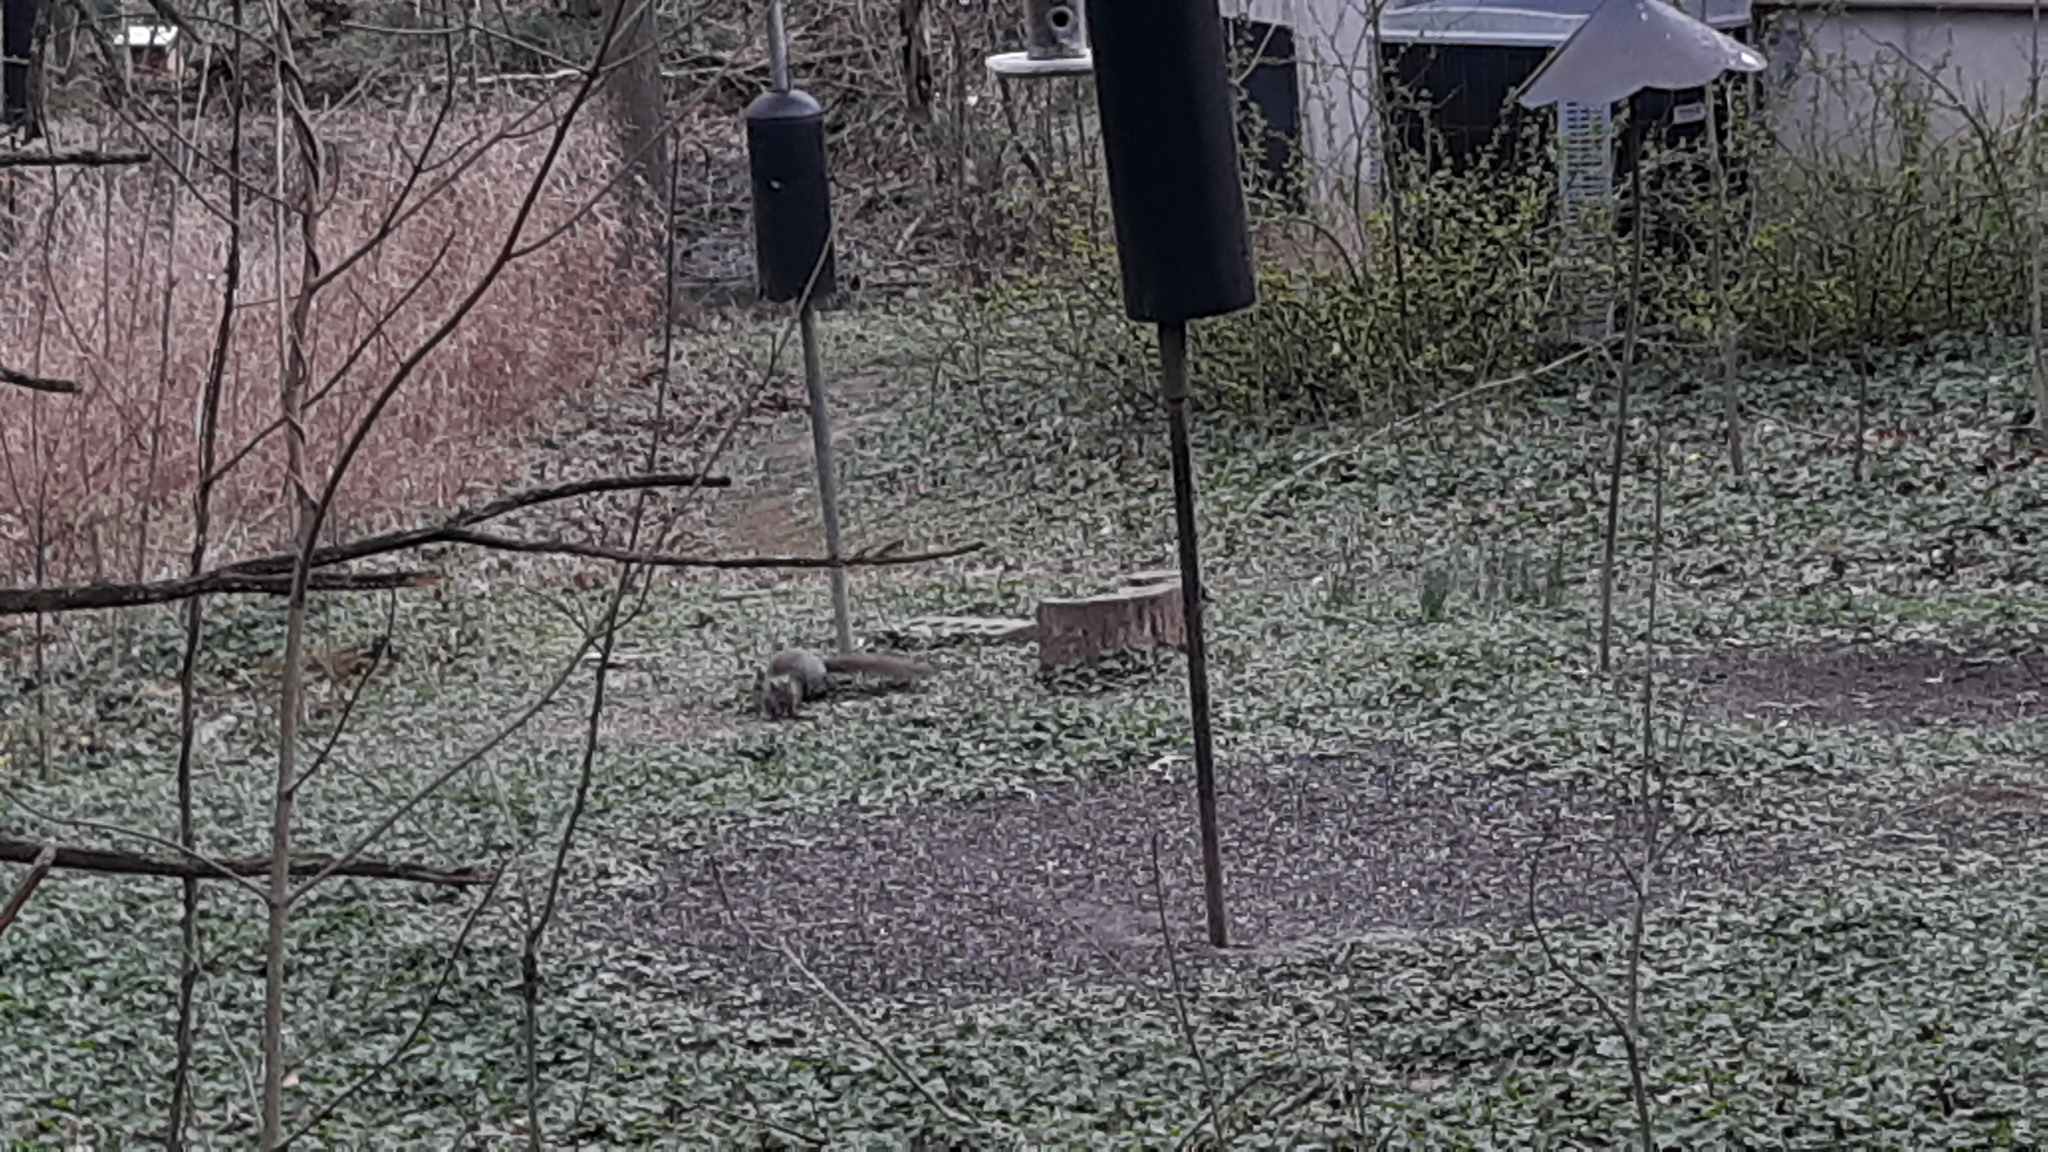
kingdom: Animalia
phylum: Chordata
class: Mammalia
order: Rodentia
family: Sciuridae
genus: Sciurus
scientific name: Sciurus carolinensis
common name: Eastern gray squirrel
